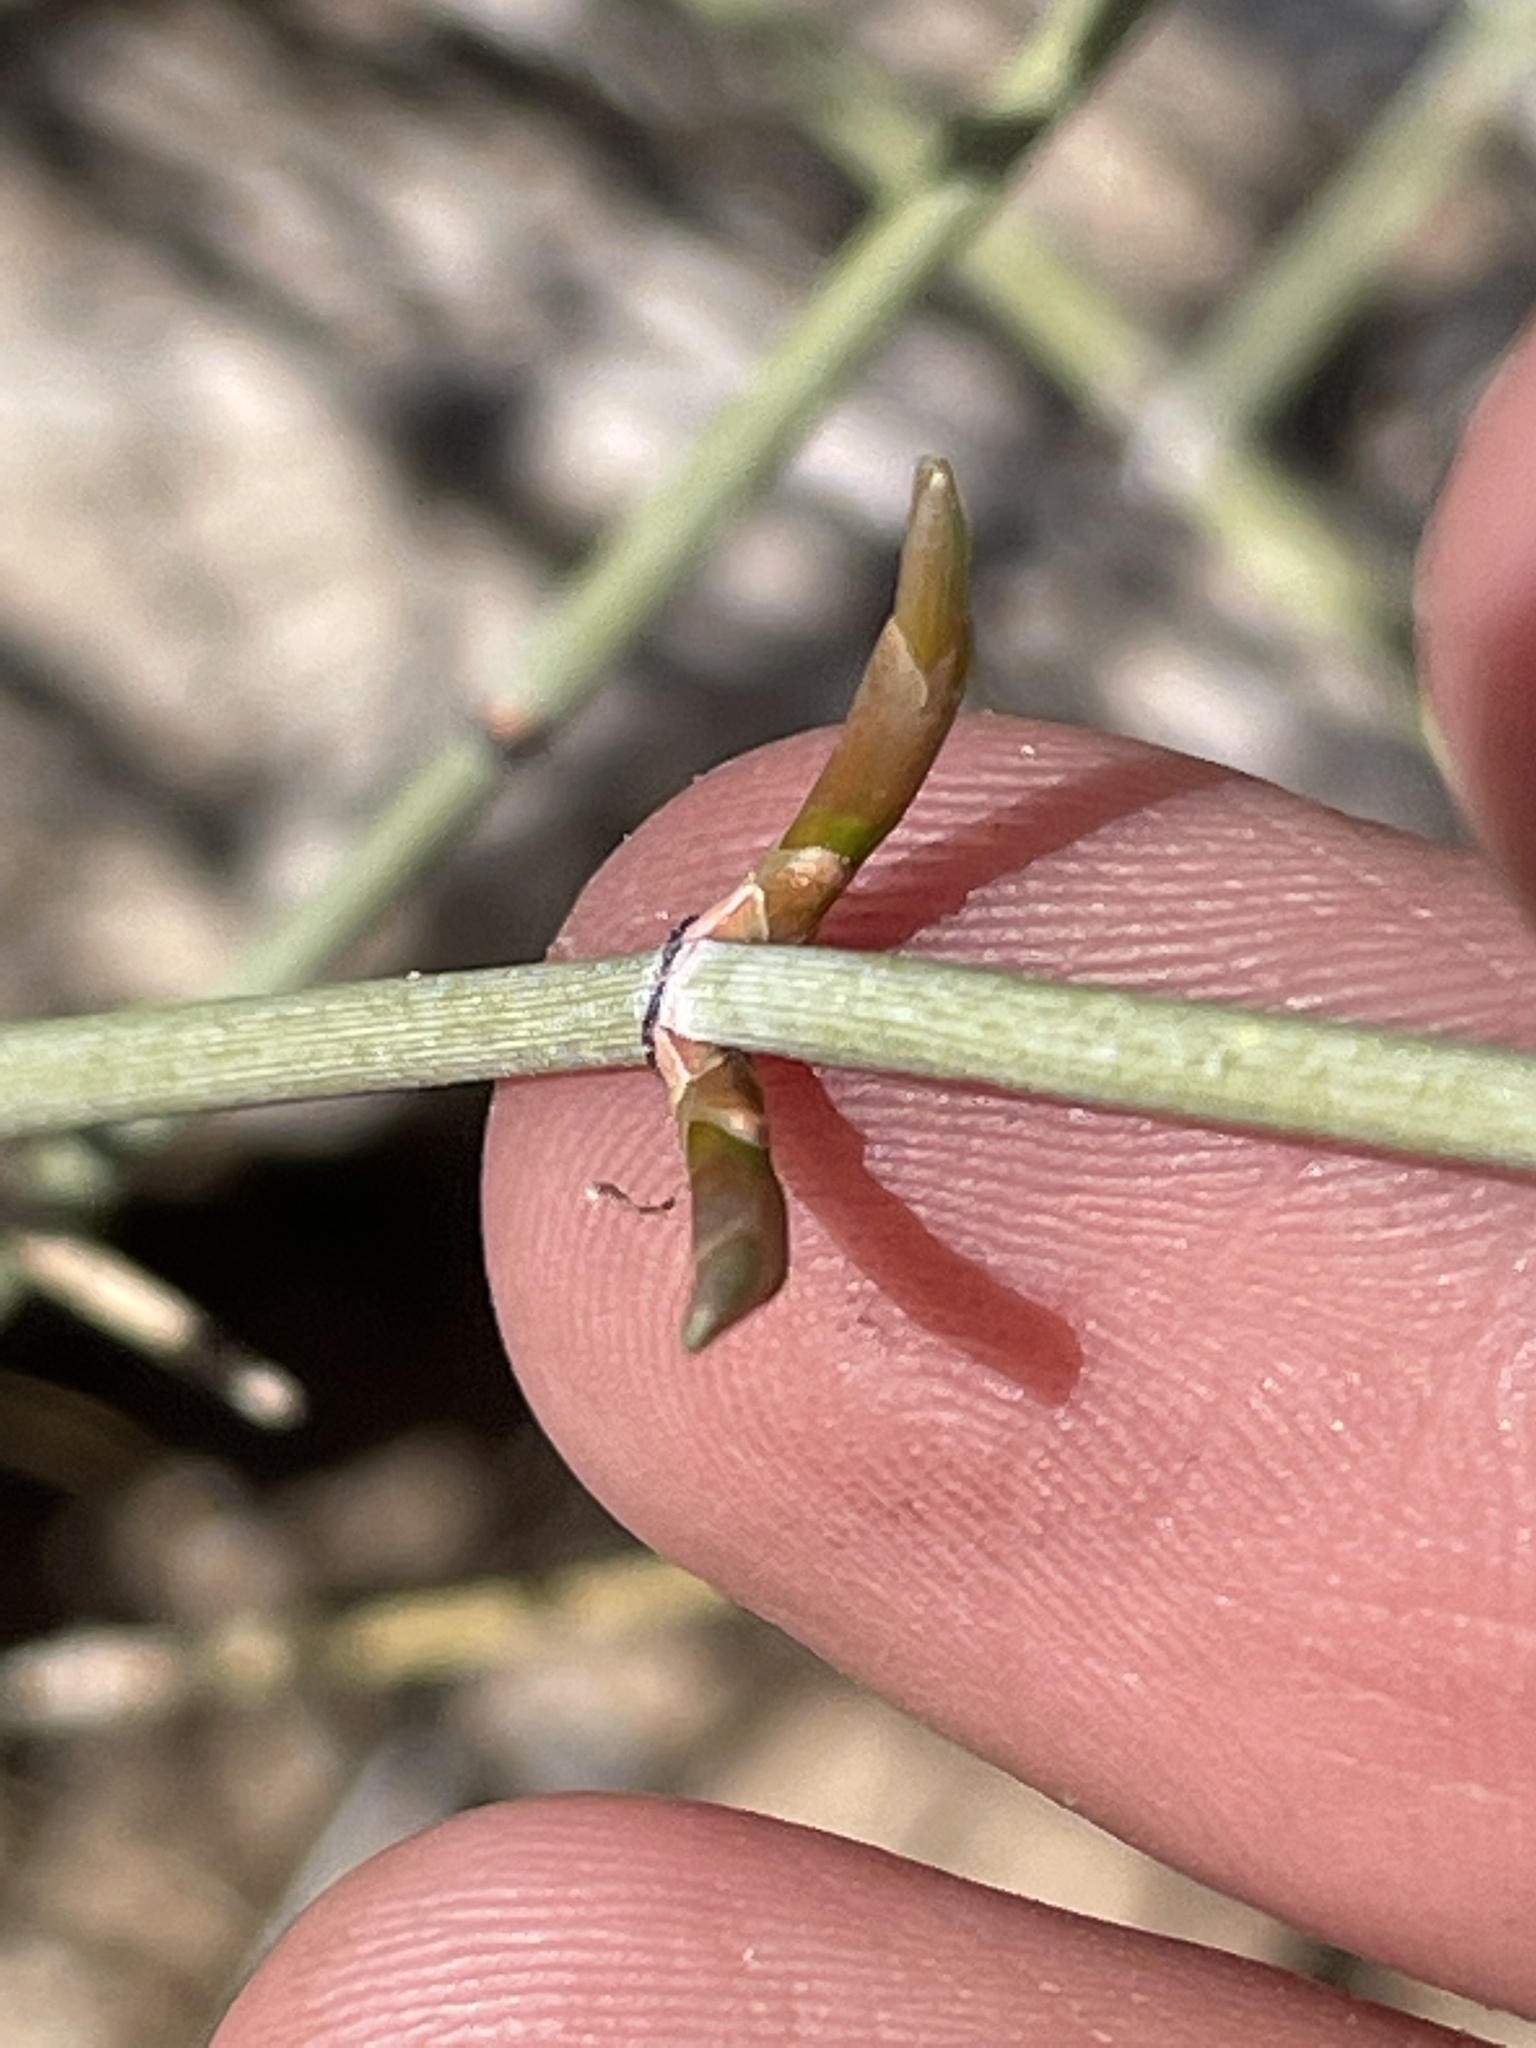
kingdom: Plantae
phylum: Tracheophyta
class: Gnetopsida
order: Ephedrales
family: Ephedraceae
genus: Ephedra
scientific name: Ephedra nevadensis
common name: Gray ephedra
